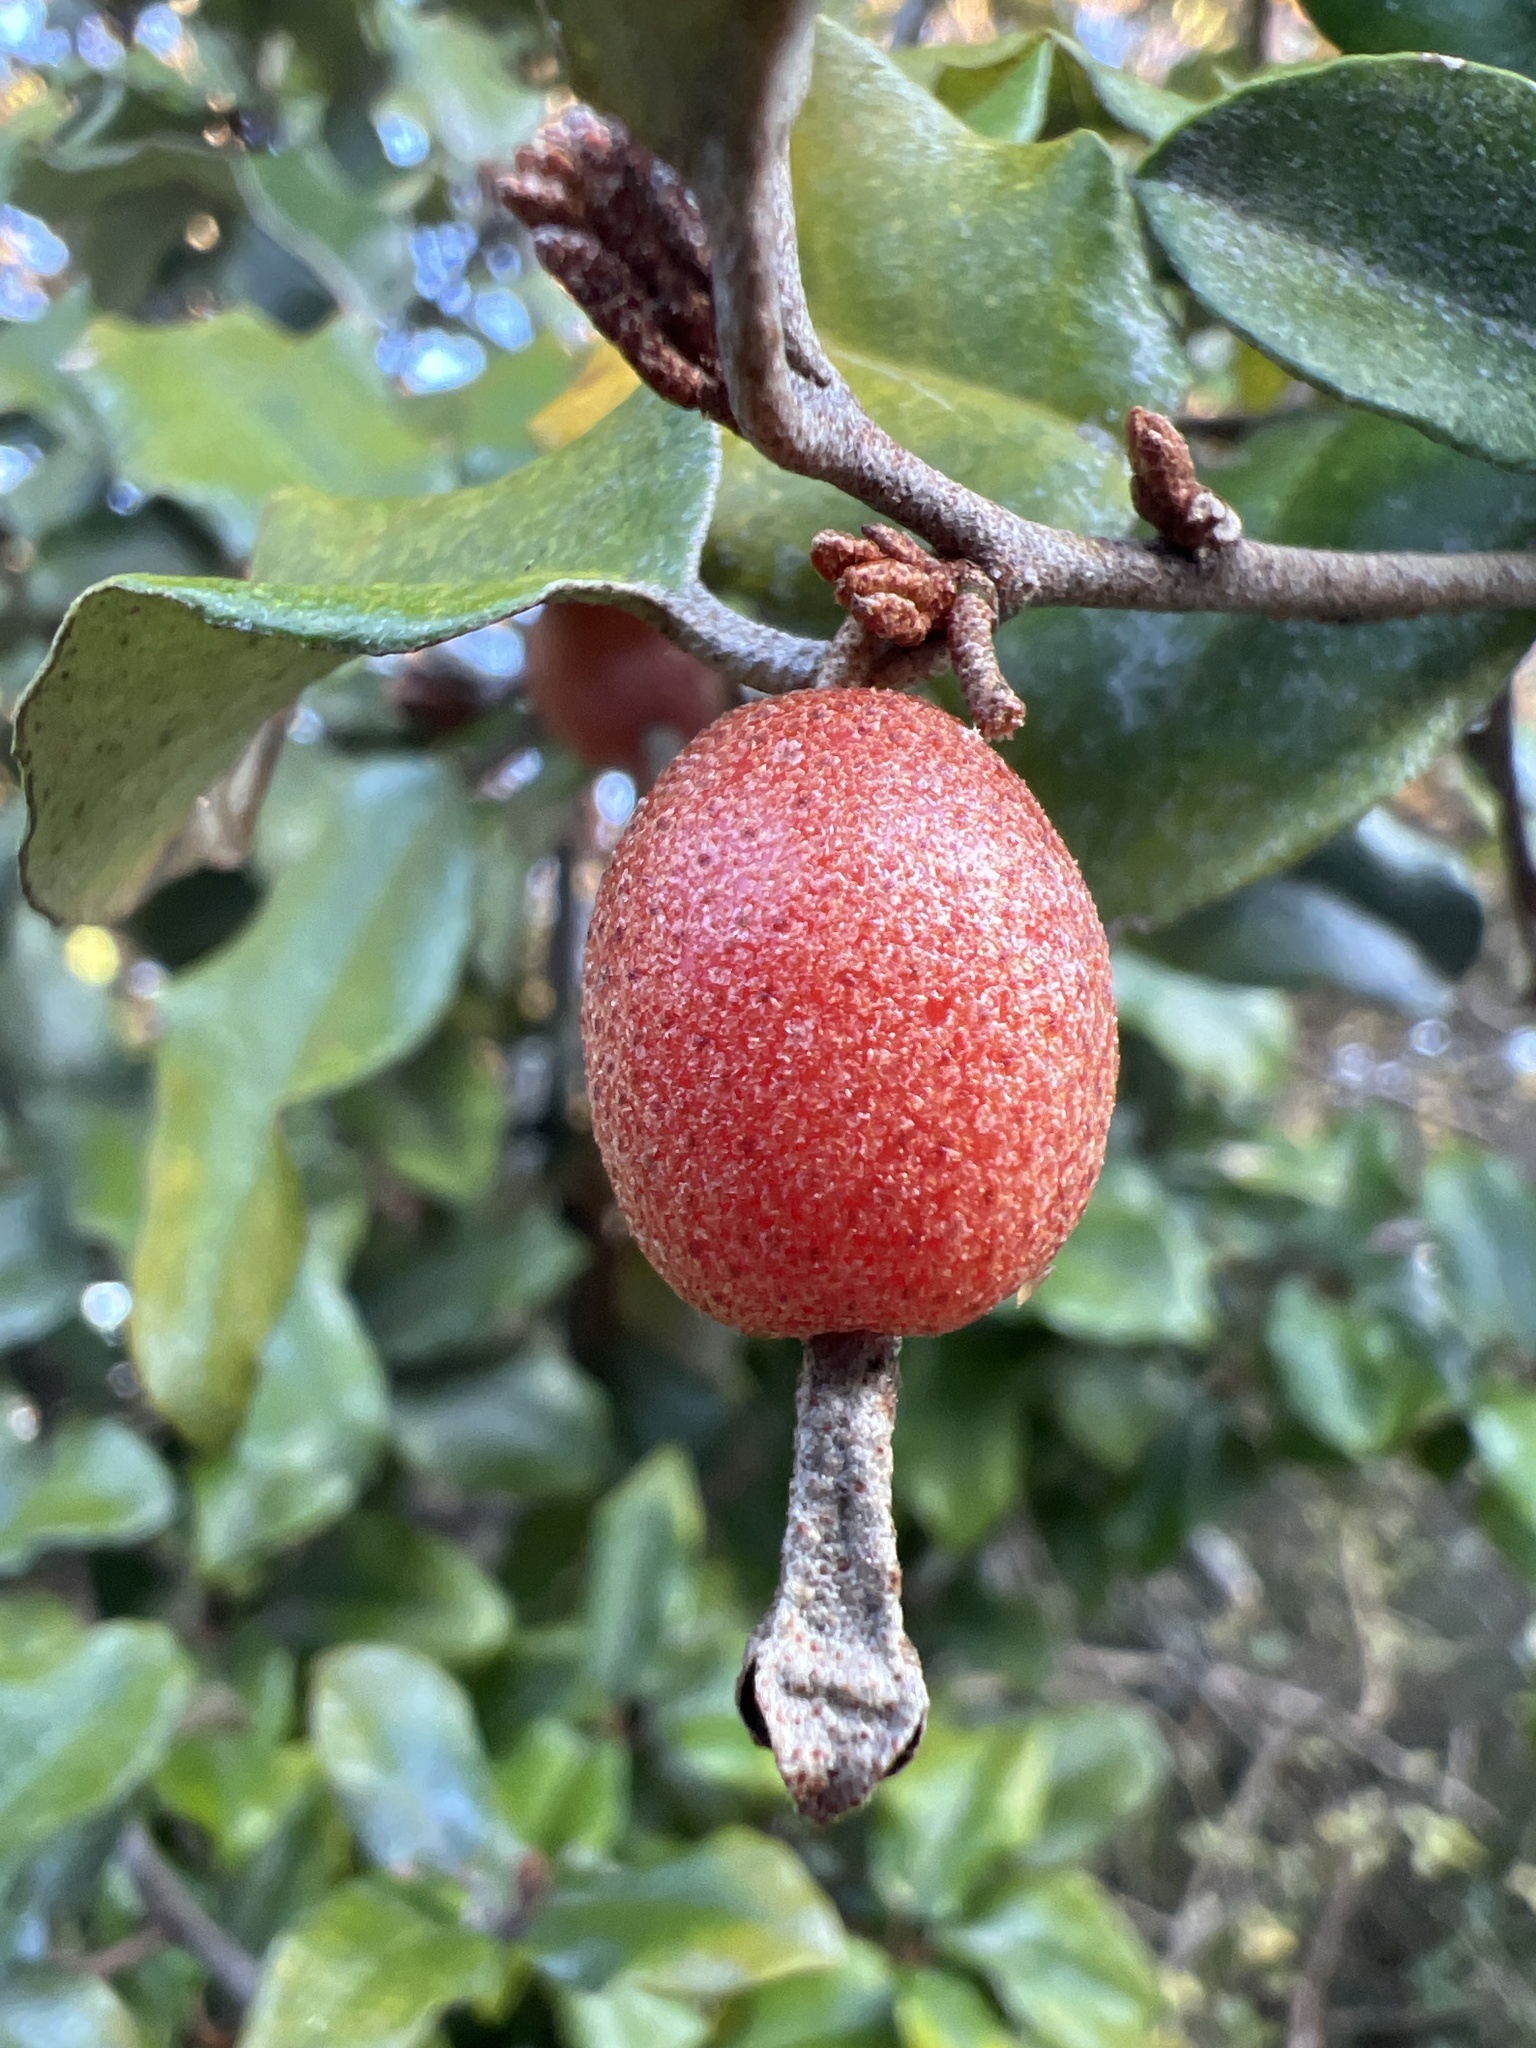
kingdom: Plantae
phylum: Tracheophyta
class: Magnoliopsida
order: Rosales
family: Elaeagnaceae
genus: Elaeagnus
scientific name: Elaeagnus pungens
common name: Spiny oleaster
